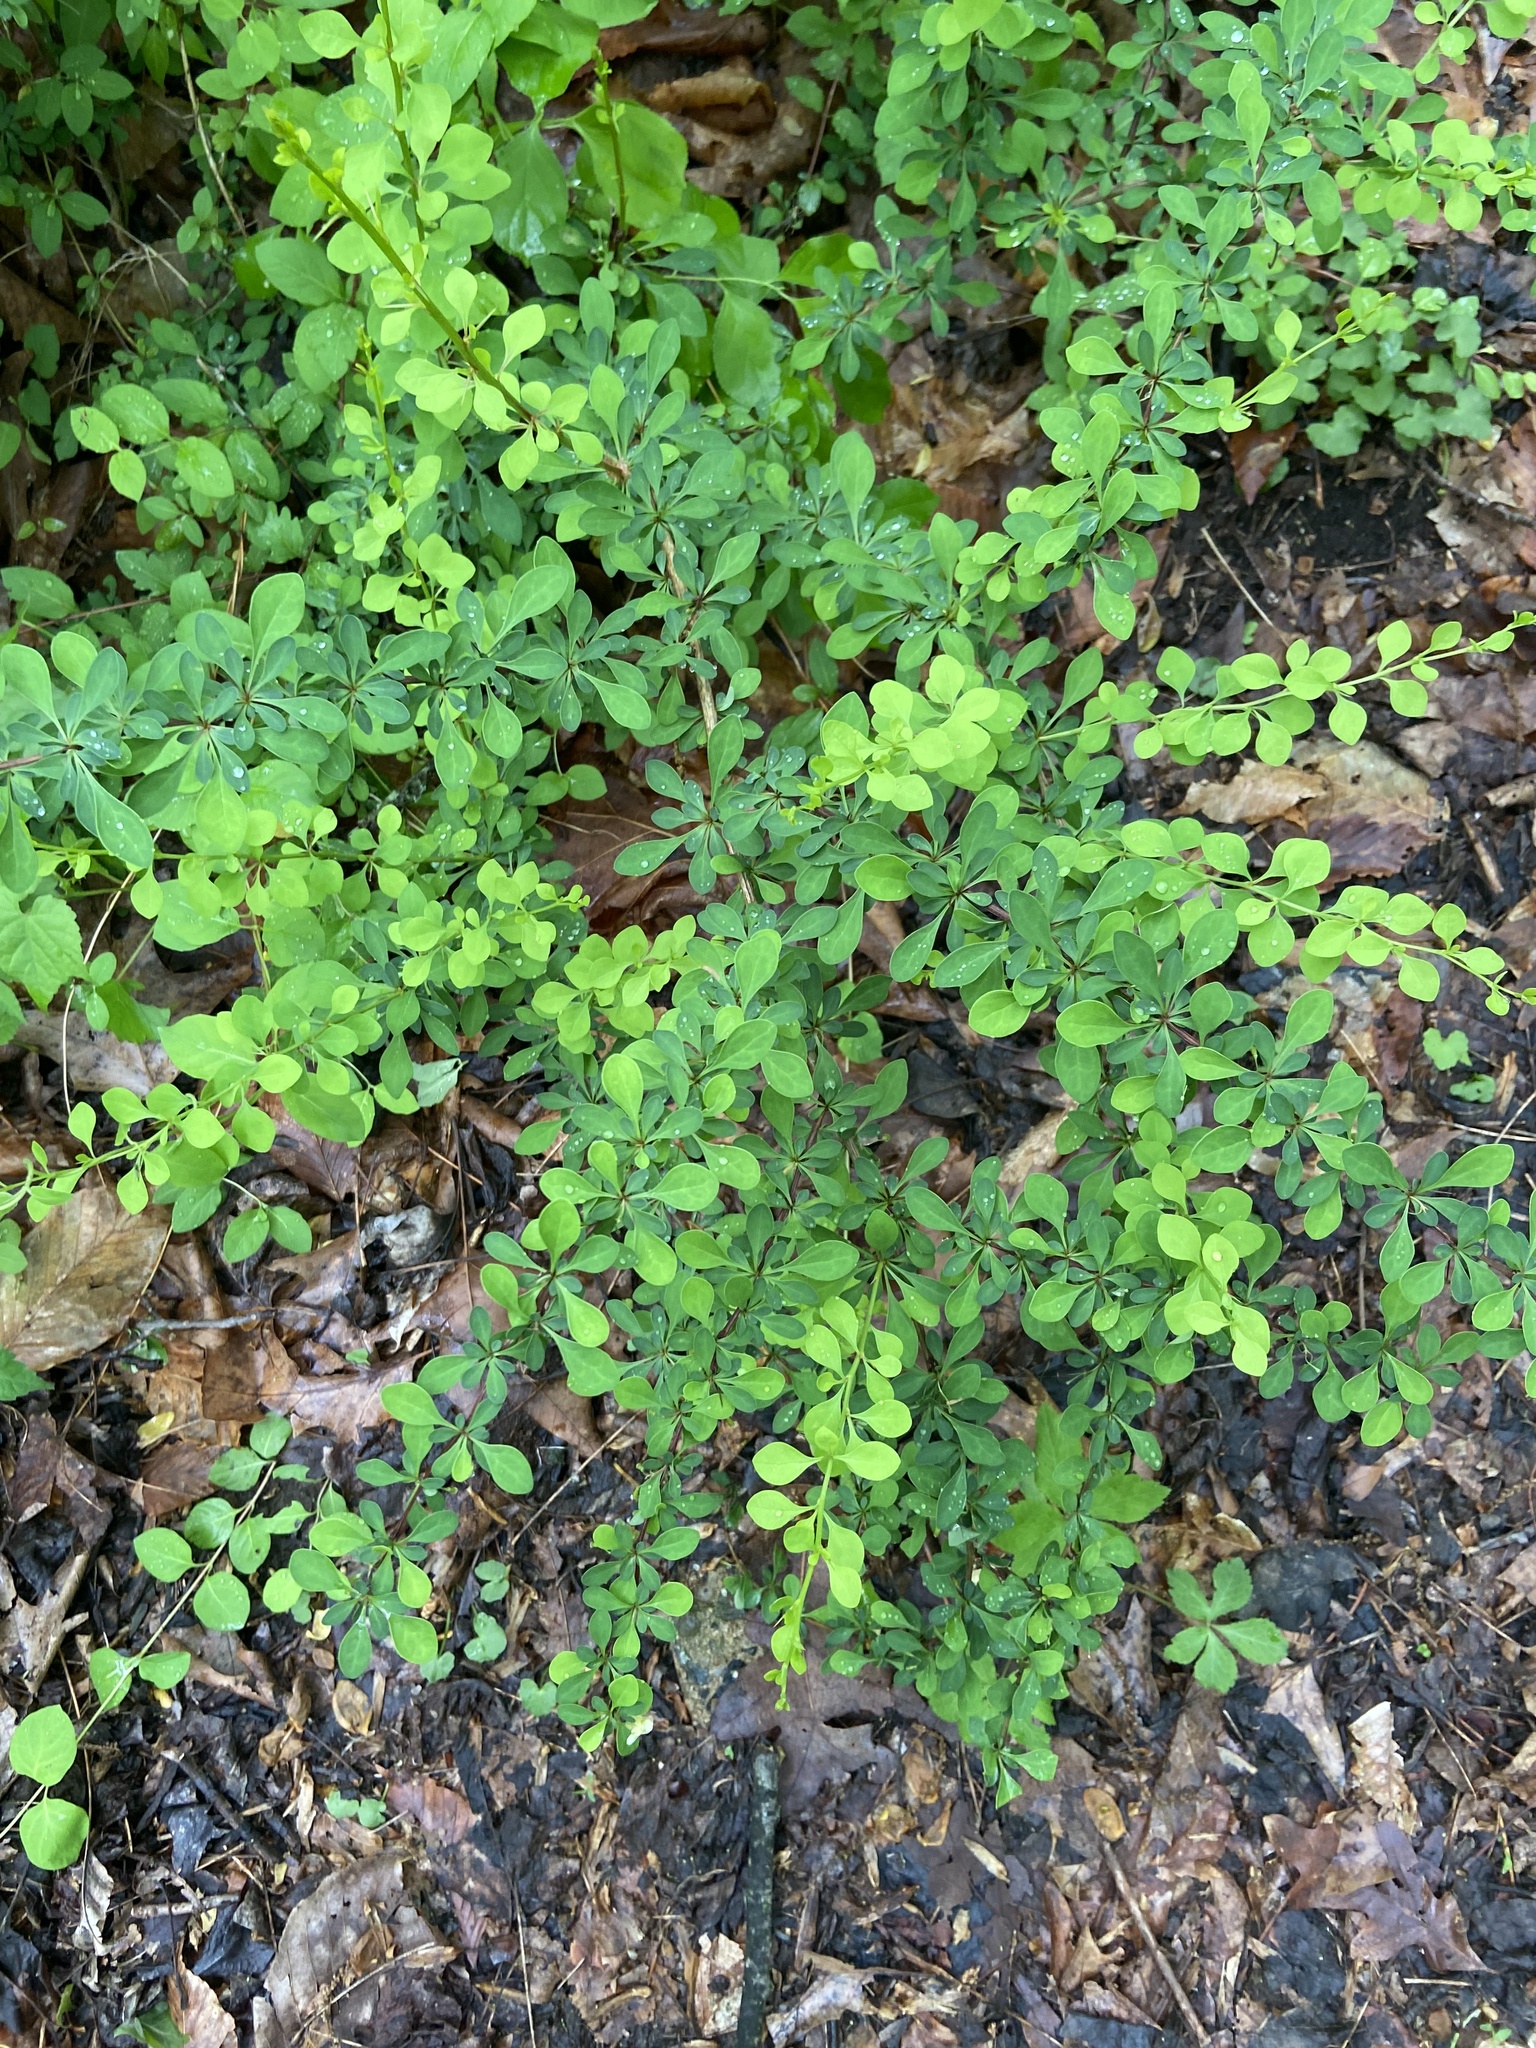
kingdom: Plantae
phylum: Tracheophyta
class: Magnoliopsida
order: Ranunculales
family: Berberidaceae
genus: Berberis
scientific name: Berberis thunbergii
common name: Japanese barberry
